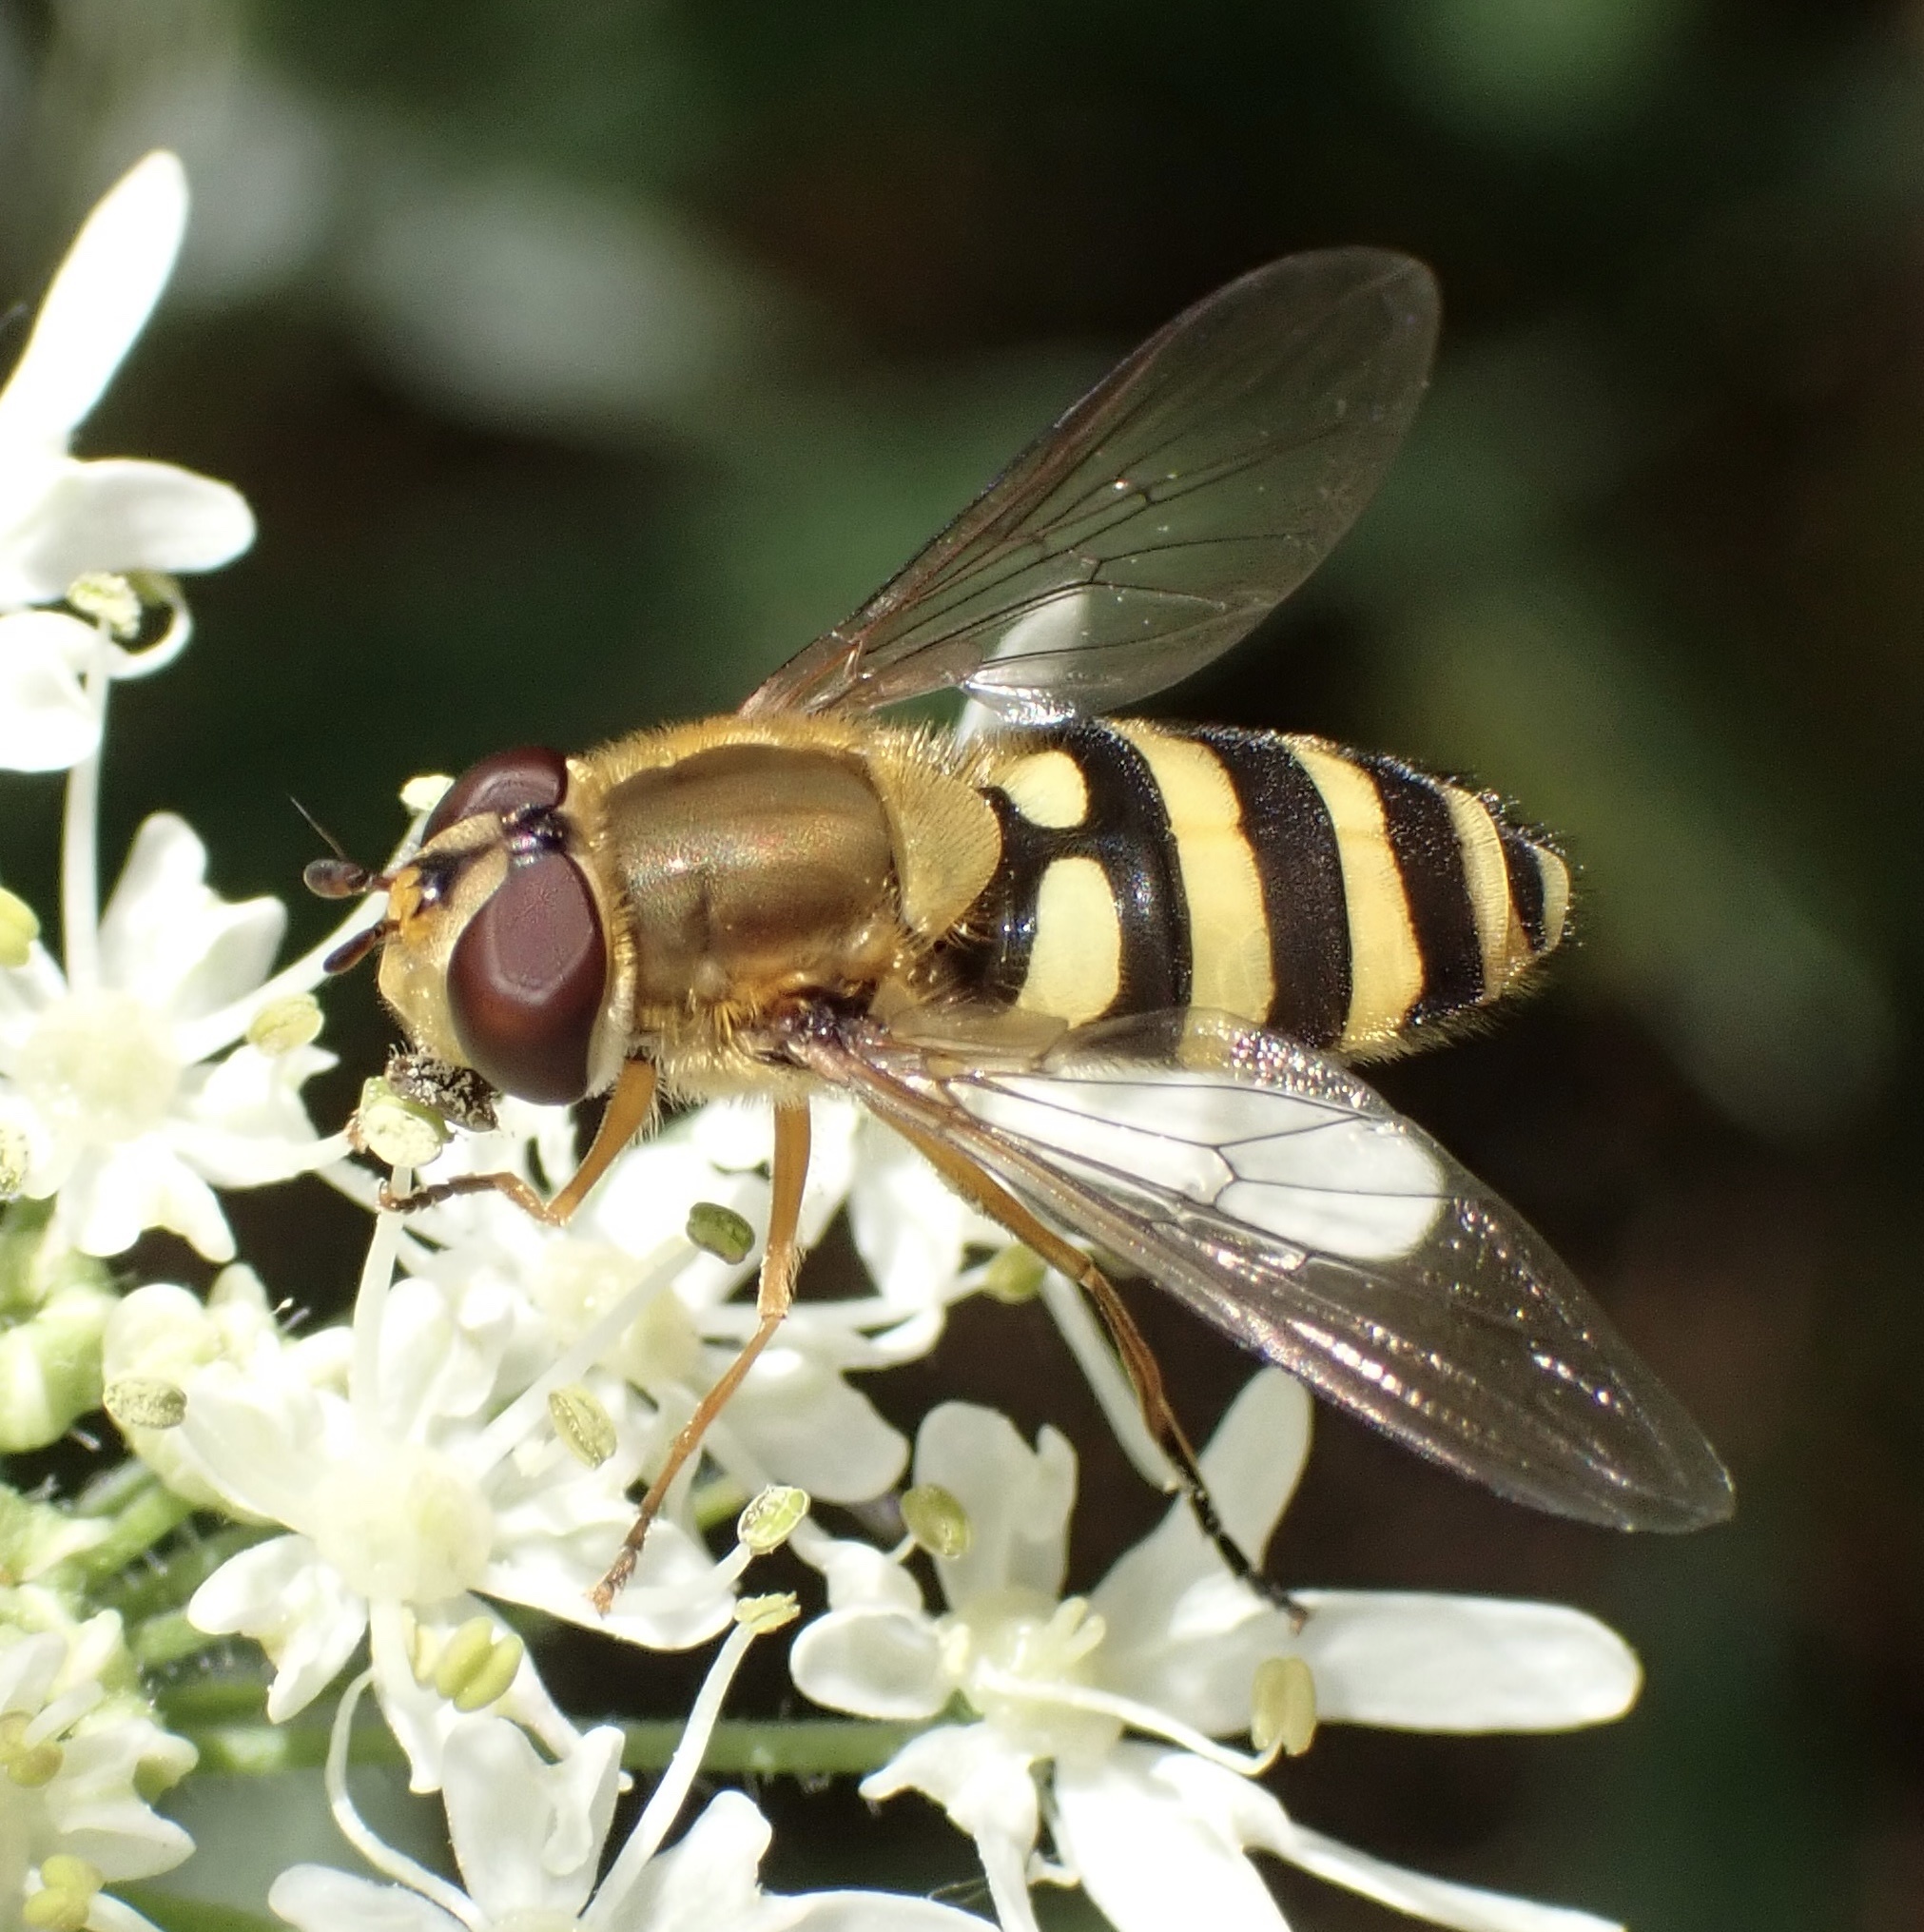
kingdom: Animalia
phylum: Arthropoda
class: Insecta
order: Diptera
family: Syrphidae
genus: Syrphus
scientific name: Syrphus ribesii
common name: Common flower fly
